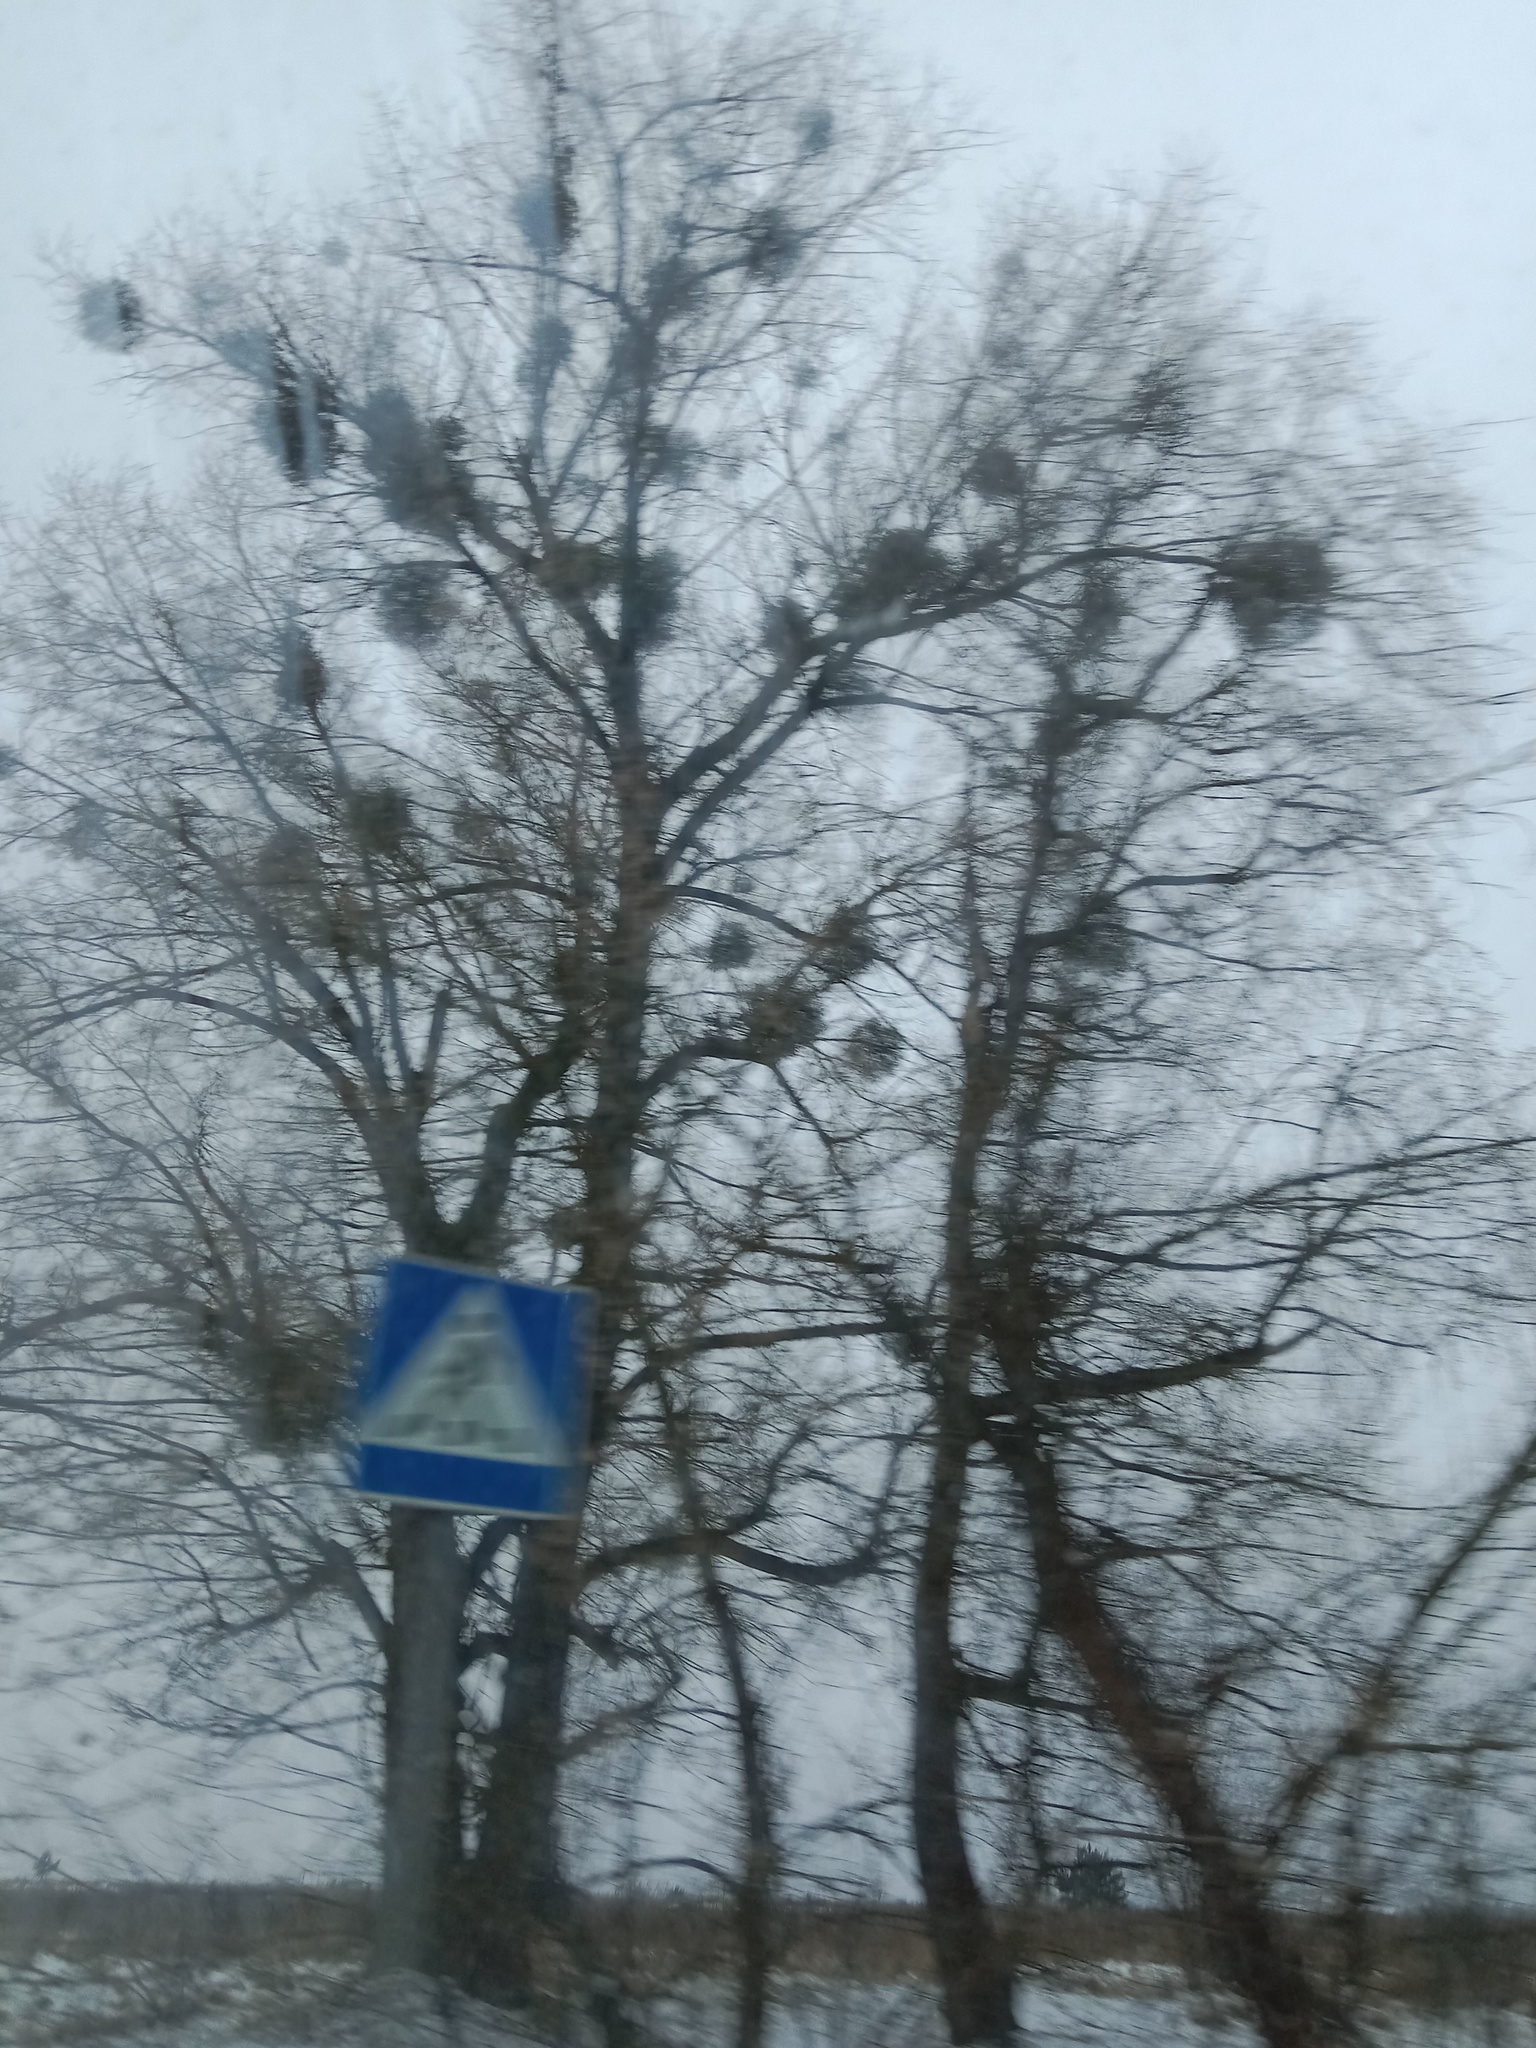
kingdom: Plantae
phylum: Tracheophyta
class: Magnoliopsida
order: Santalales
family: Viscaceae
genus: Viscum
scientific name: Viscum album
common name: Mistletoe
